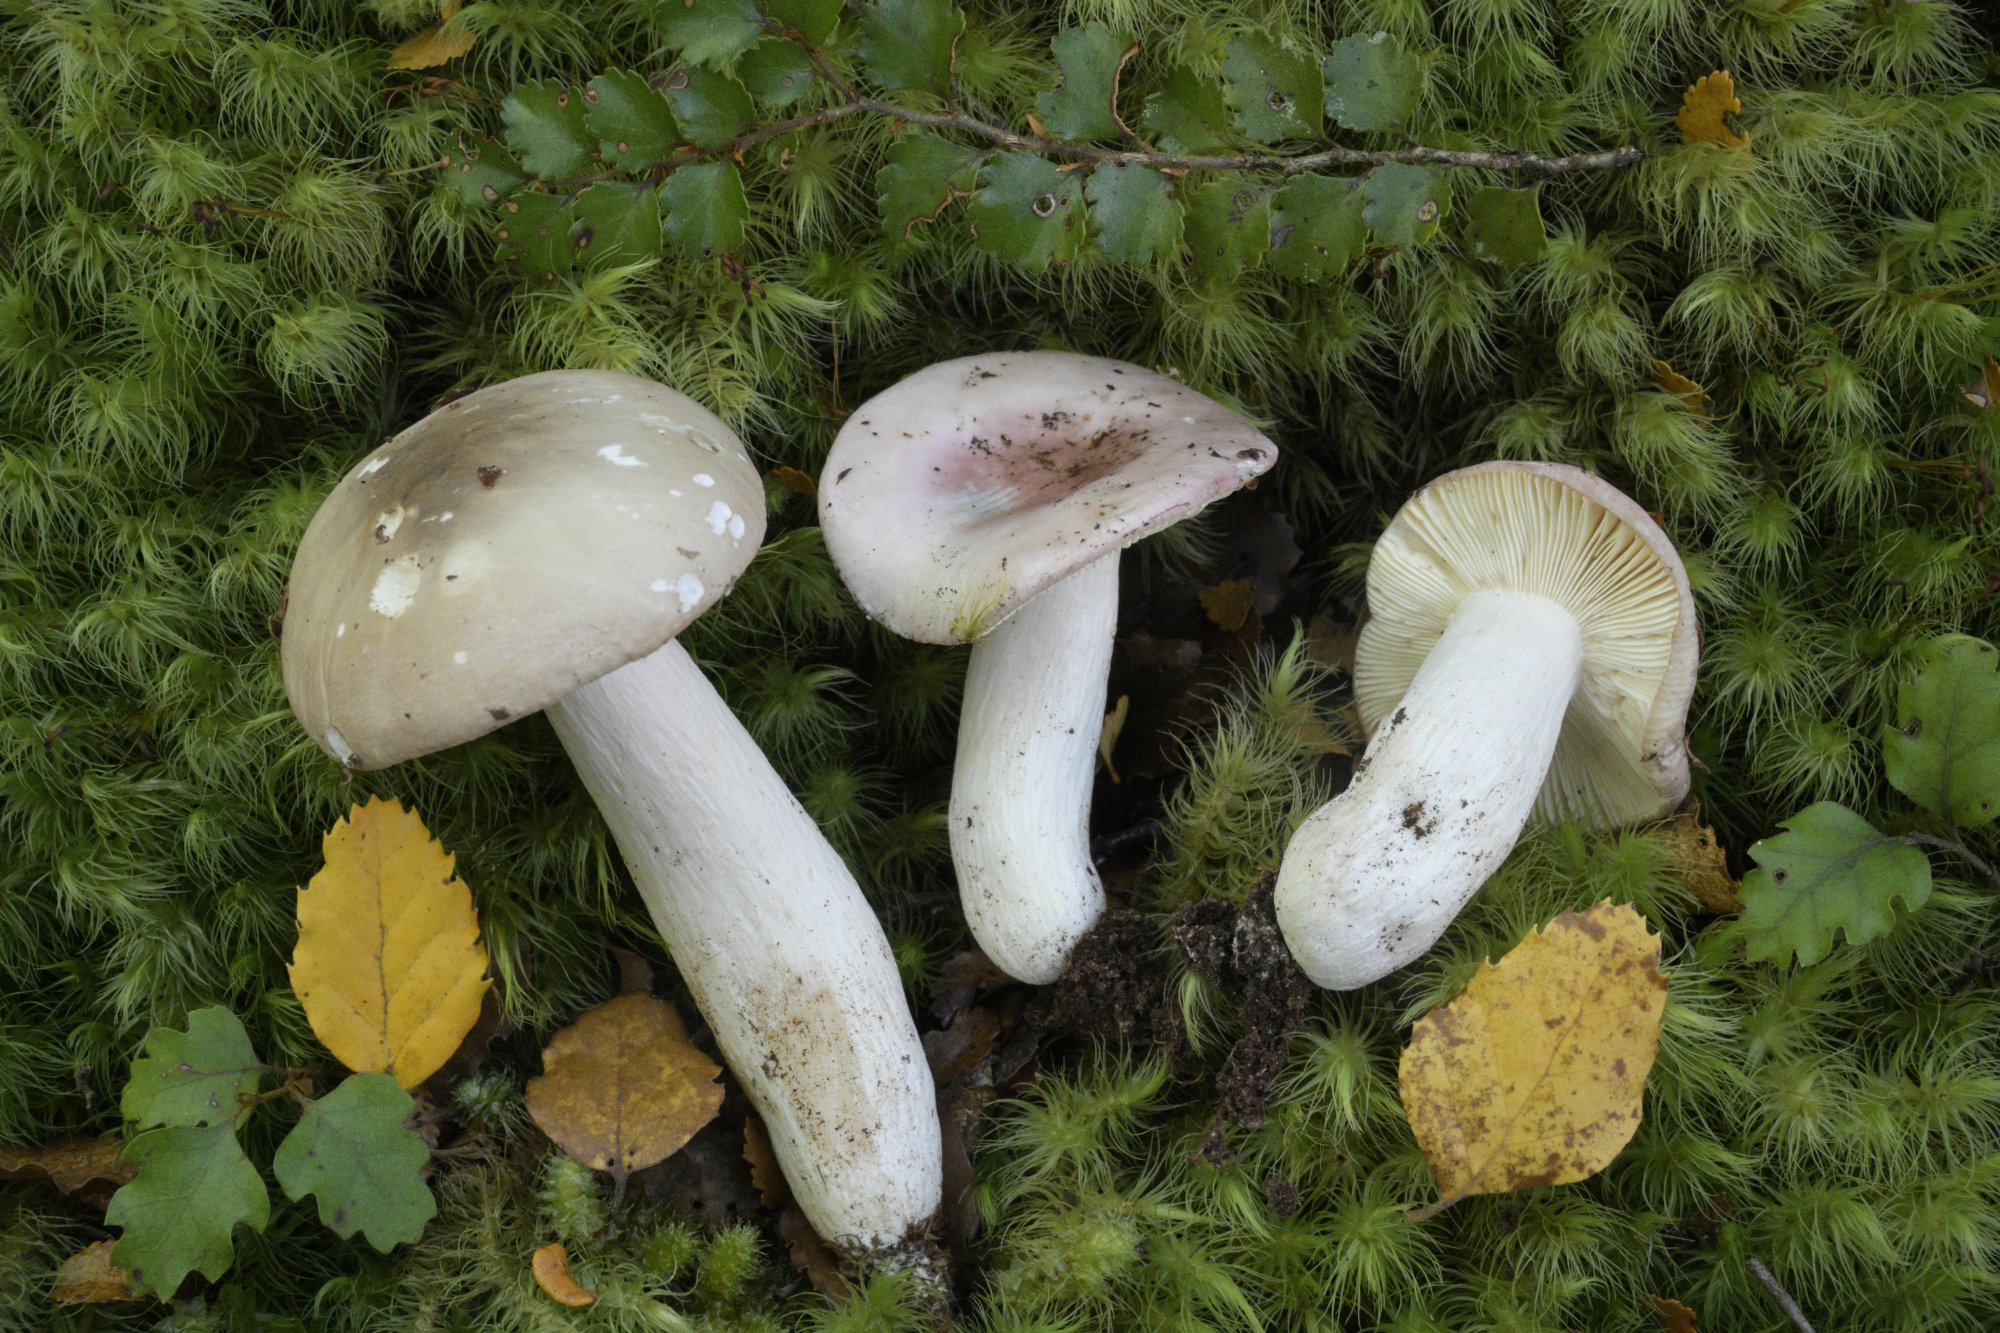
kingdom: Fungi
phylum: Basidiomycota
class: Agaricomycetes
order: Russulales
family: Russulaceae
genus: Russula
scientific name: Russula purpureotincta
